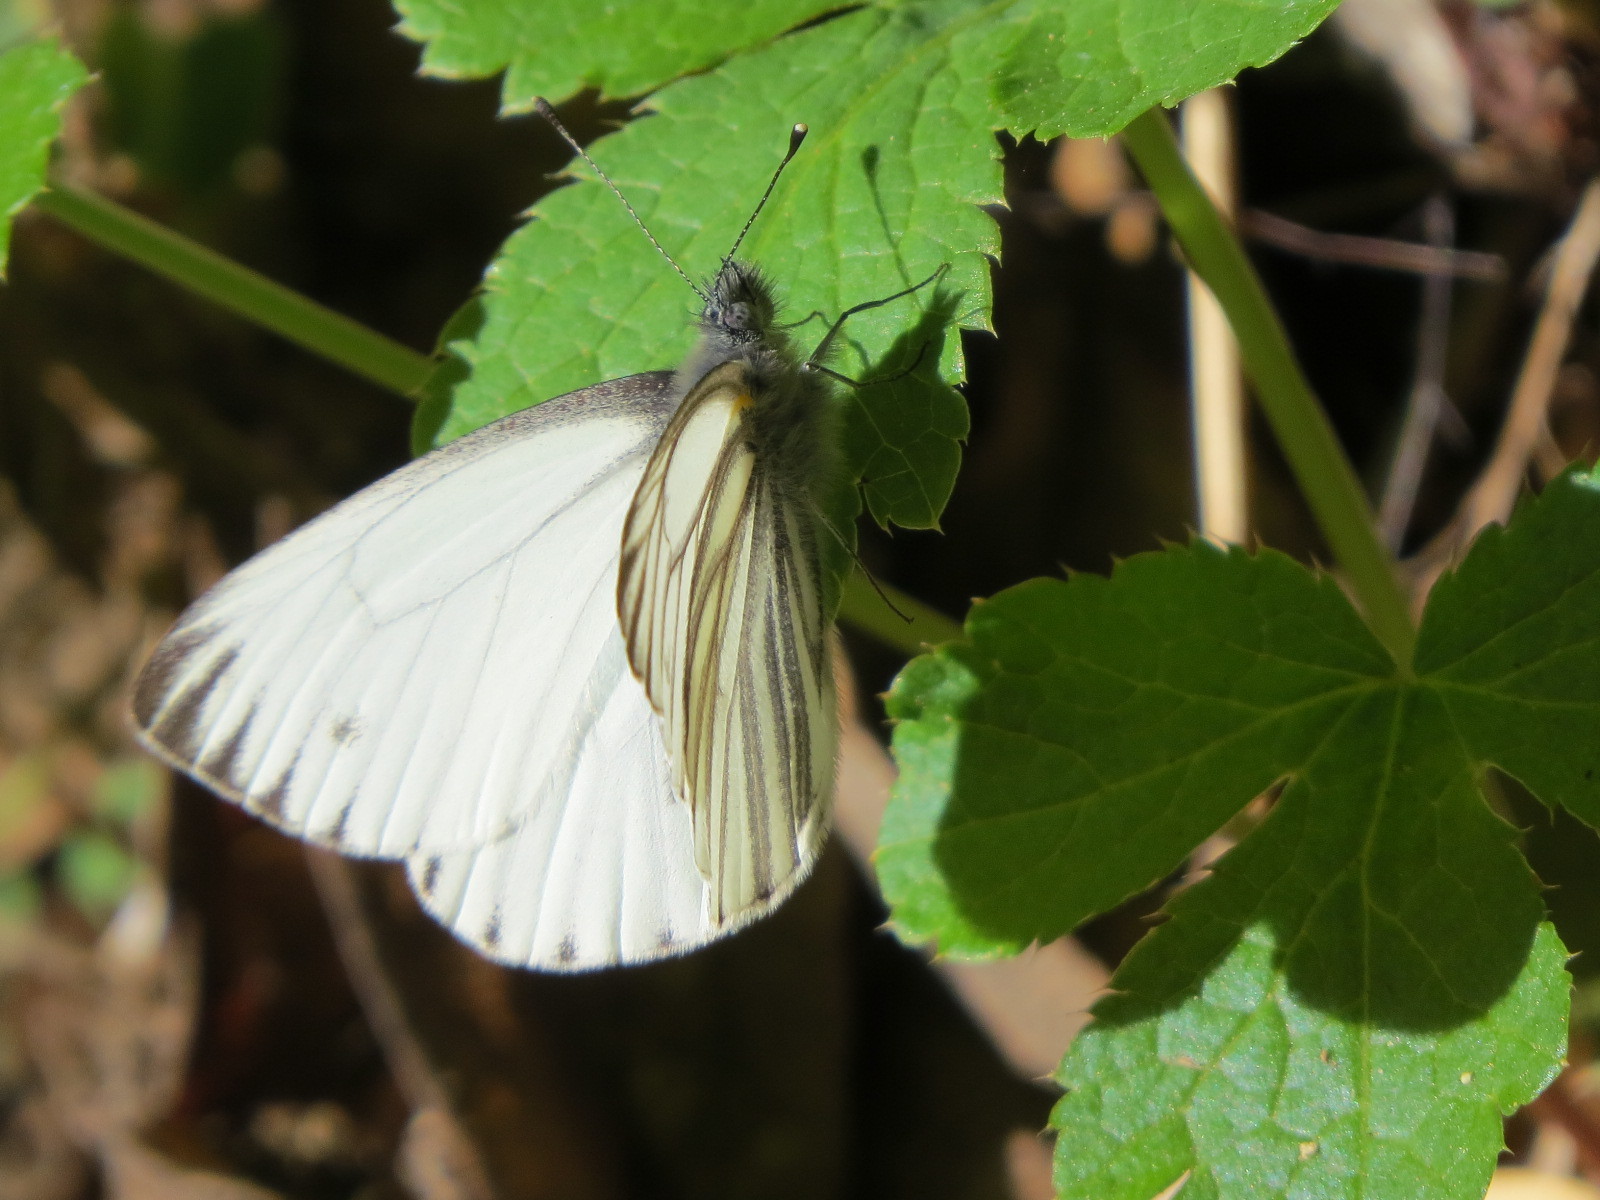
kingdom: Animalia
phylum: Arthropoda
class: Insecta
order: Lepidoptera
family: Pieridae
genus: Pieris
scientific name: Pieris marginalis
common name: Margined white
